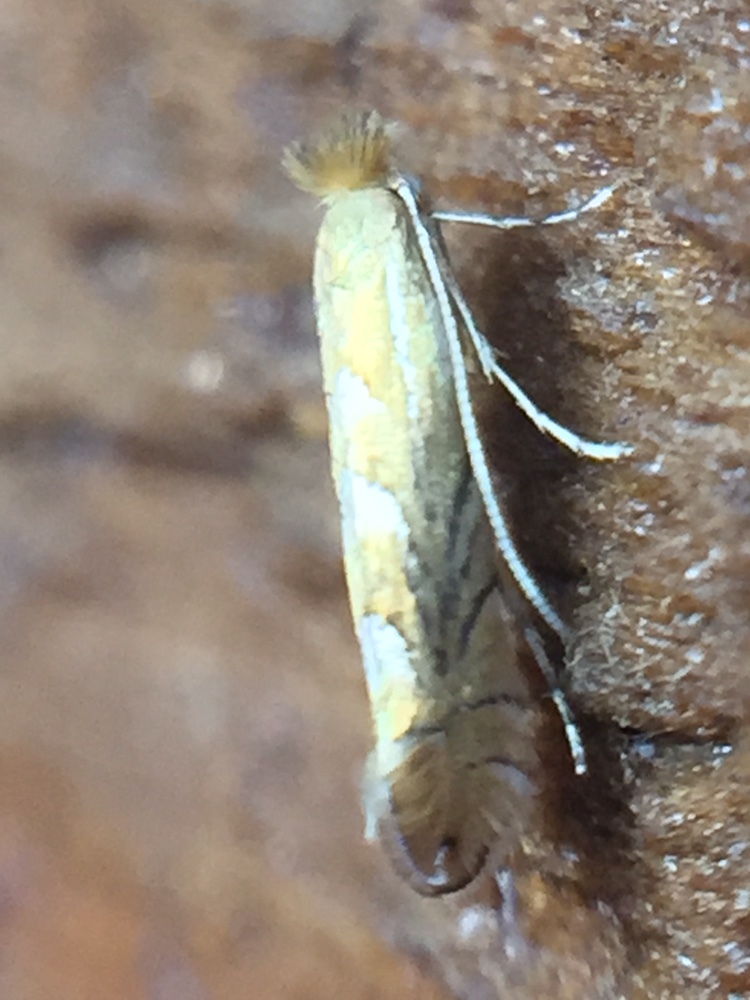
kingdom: Animalia
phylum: Arthropoda
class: Insecta
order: Lepidoptera
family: Gracillariidae
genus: Phyllonorycter
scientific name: Phyllonorycter messaniella
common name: Garden midget
